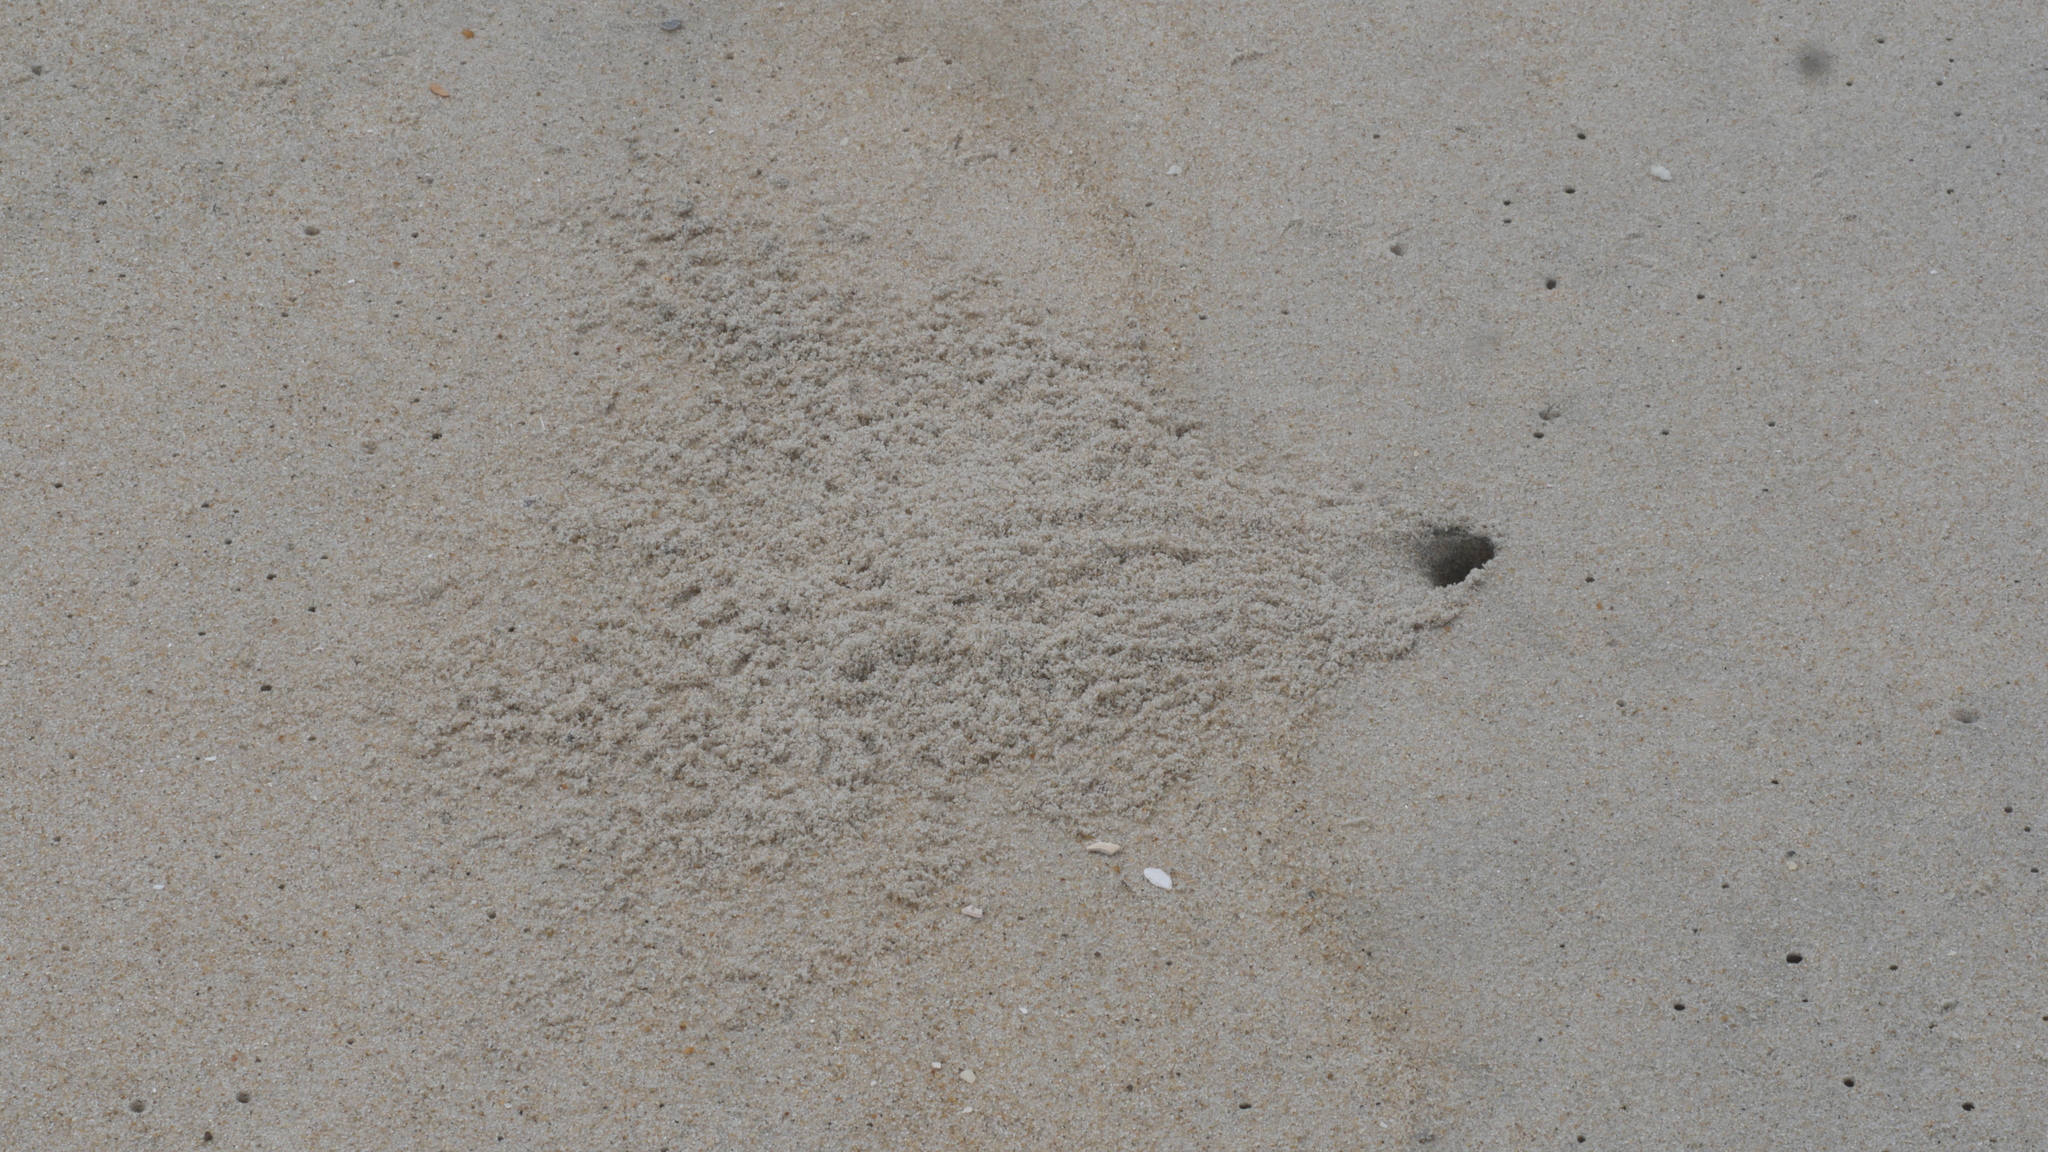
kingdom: Animalia
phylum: Arthropoda
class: Malacostraca
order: Decapoda
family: Ocypodidae
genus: Ocypode
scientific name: Ocypode quadrata
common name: Ghost crab
